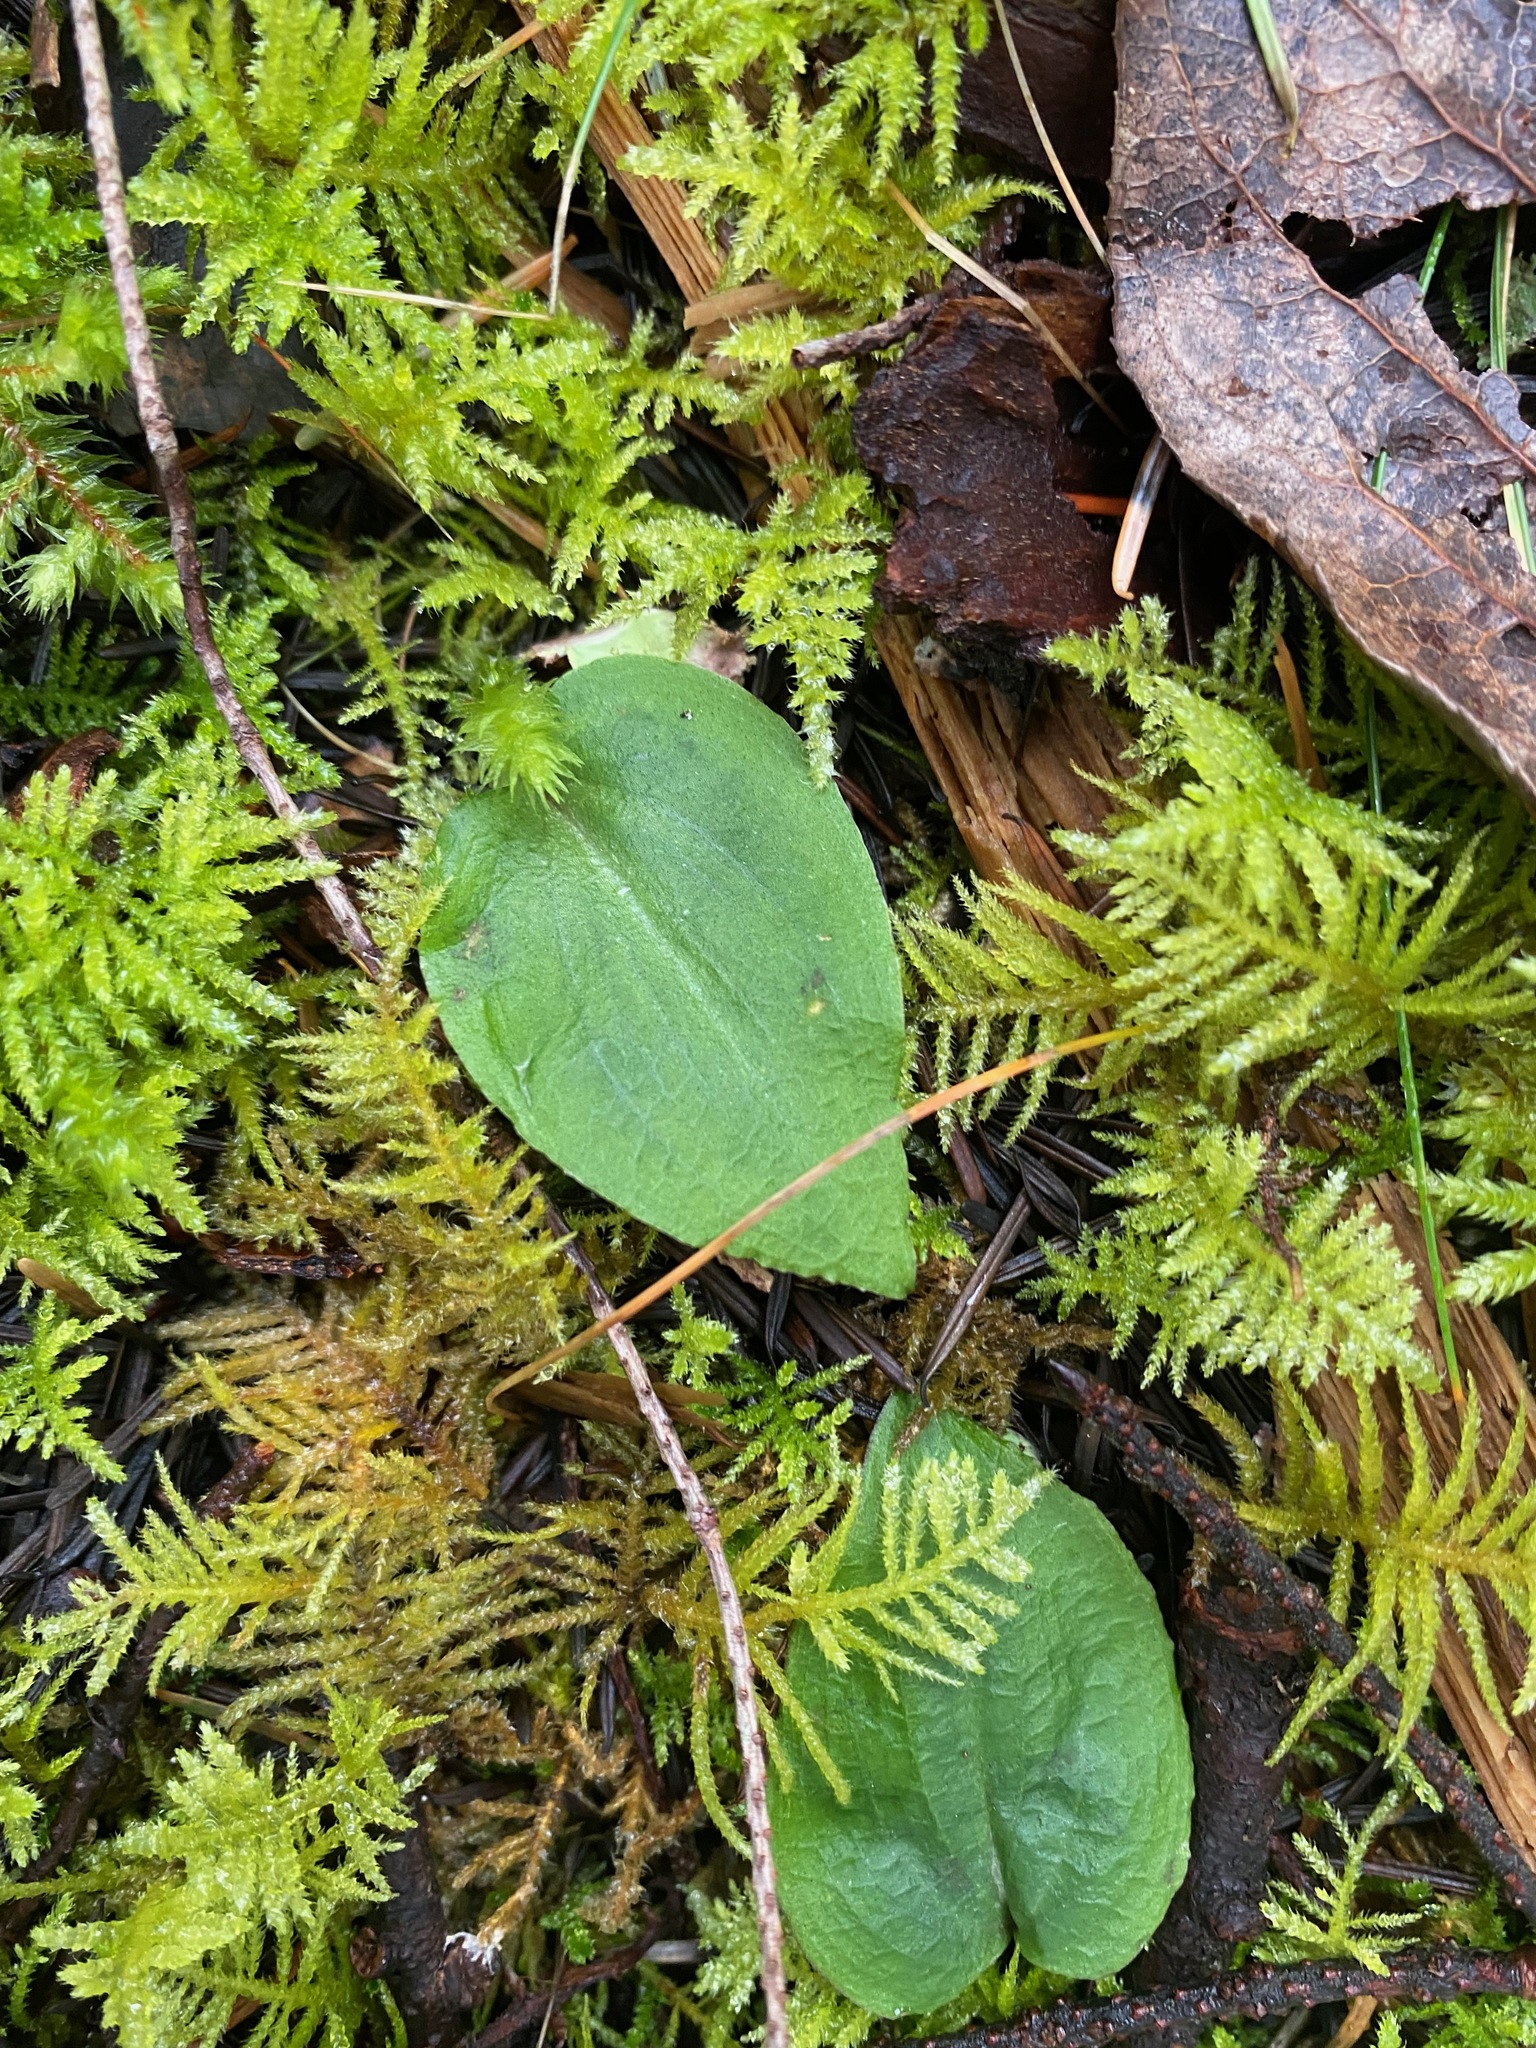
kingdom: Plantae
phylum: Tracheophyta
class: Liliopsida
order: Asparagales
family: Orchidaceae
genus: Calypso
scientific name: Calypso bulbosa
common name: Calypso
